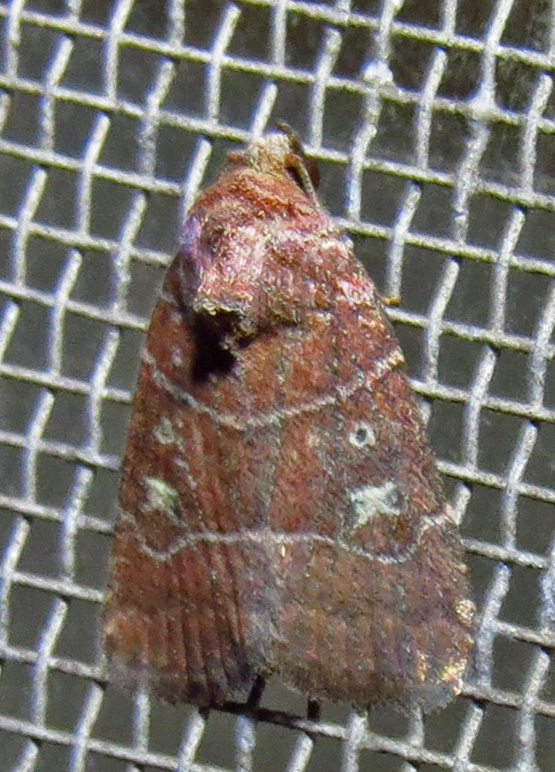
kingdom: Animalia
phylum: Arthropoda
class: Insecta
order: Lepidoptera
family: Noctuidae
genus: Elaphria
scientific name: Elaphria grata
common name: Grateful midget moth
